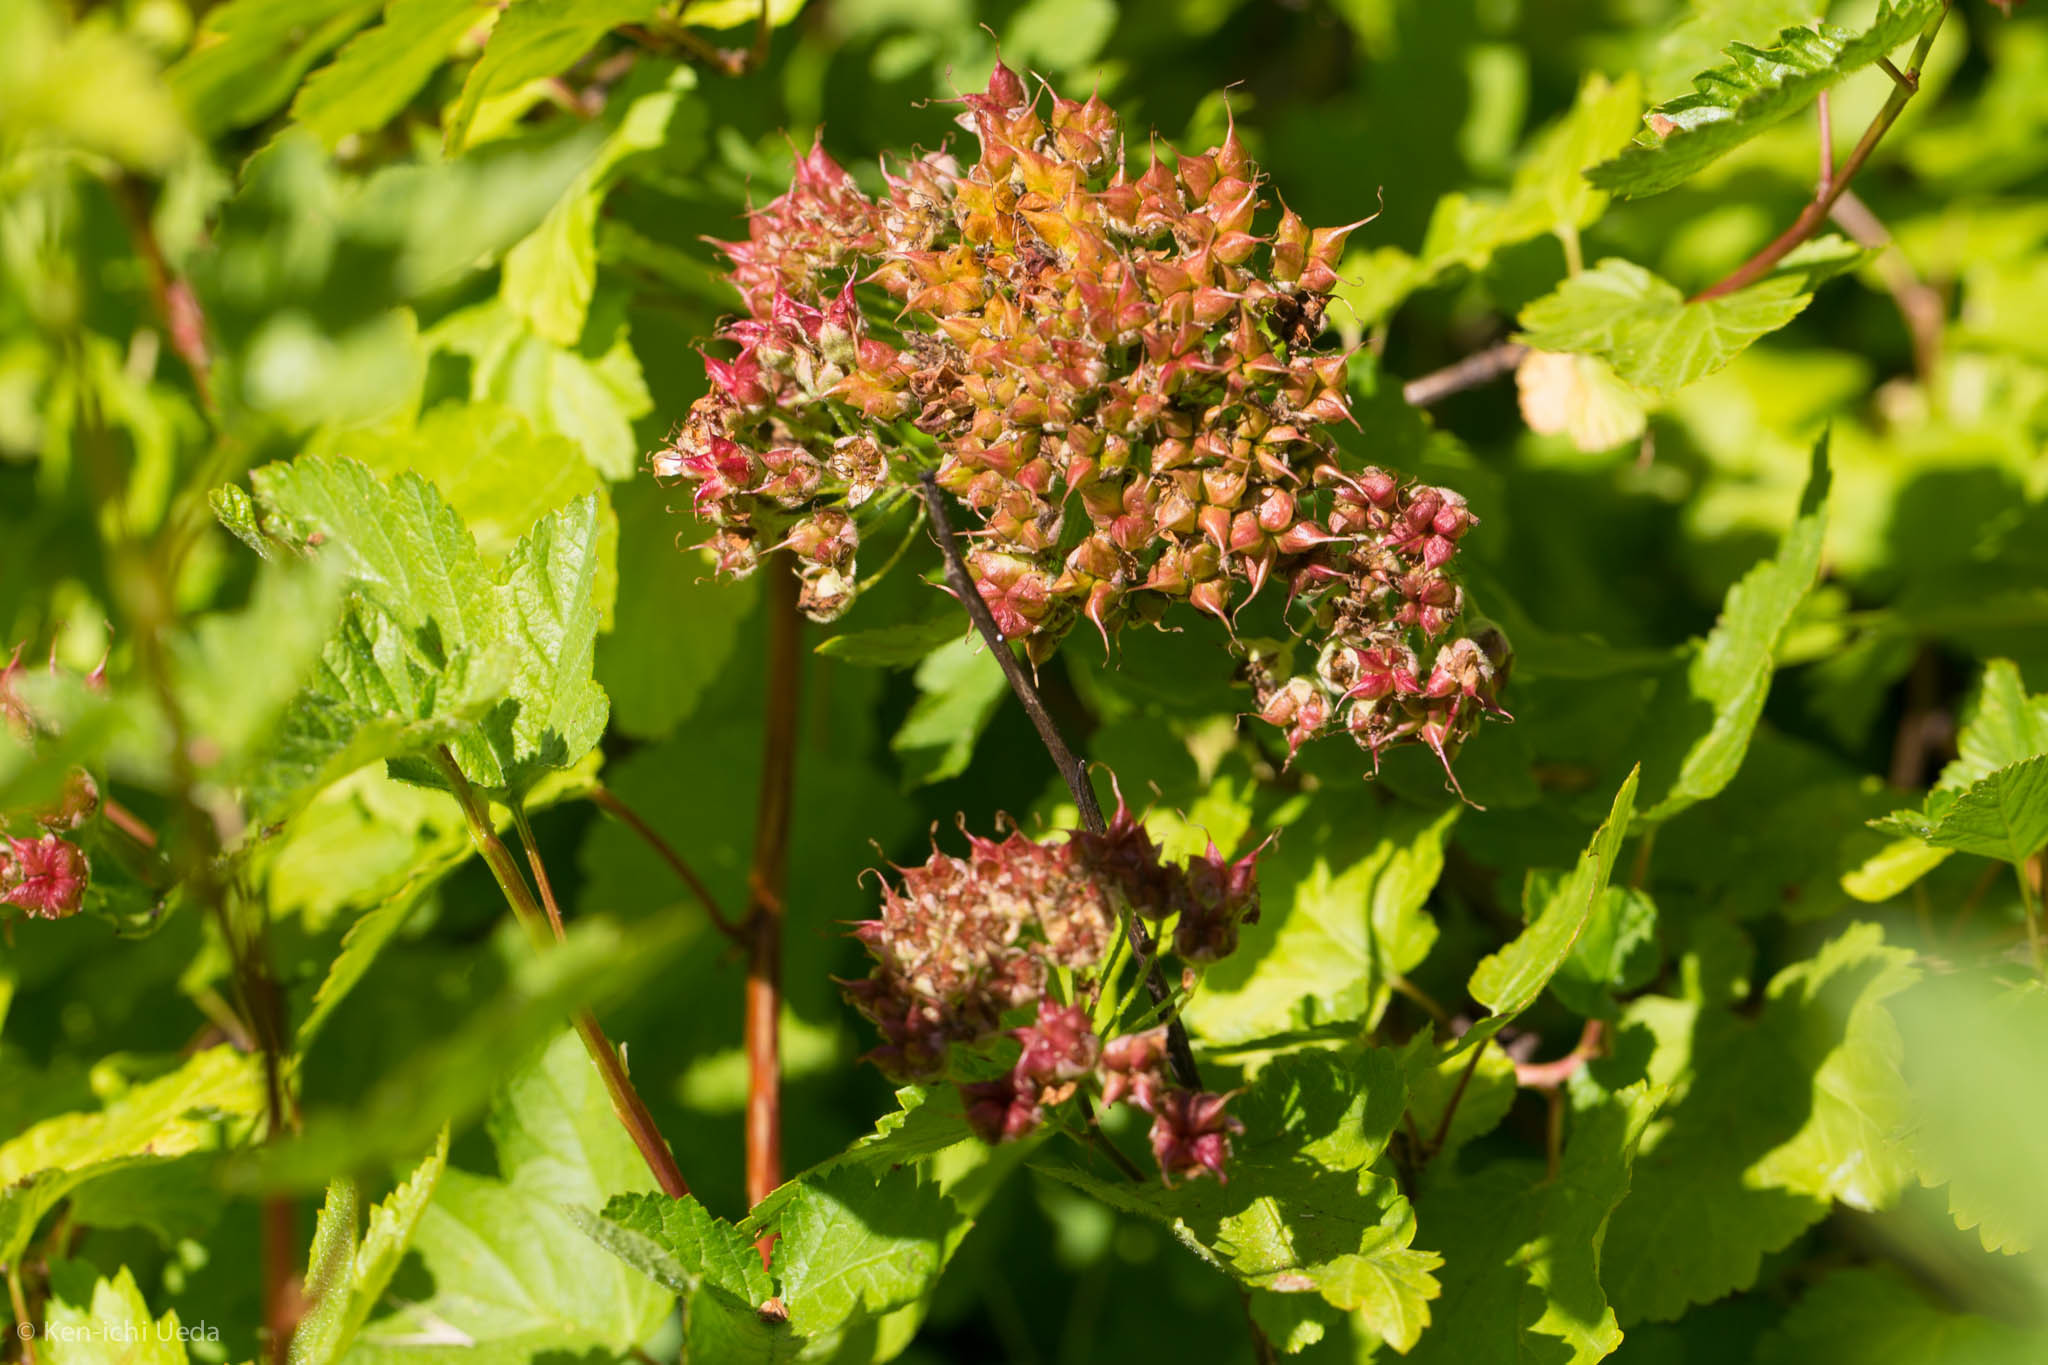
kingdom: Plantae
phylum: Tracheophyta
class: Magnoliopsida
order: Rosales
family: Rosaceae
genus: Physocarpus
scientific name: Physocarpus capitatus
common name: Pacific ninebark
